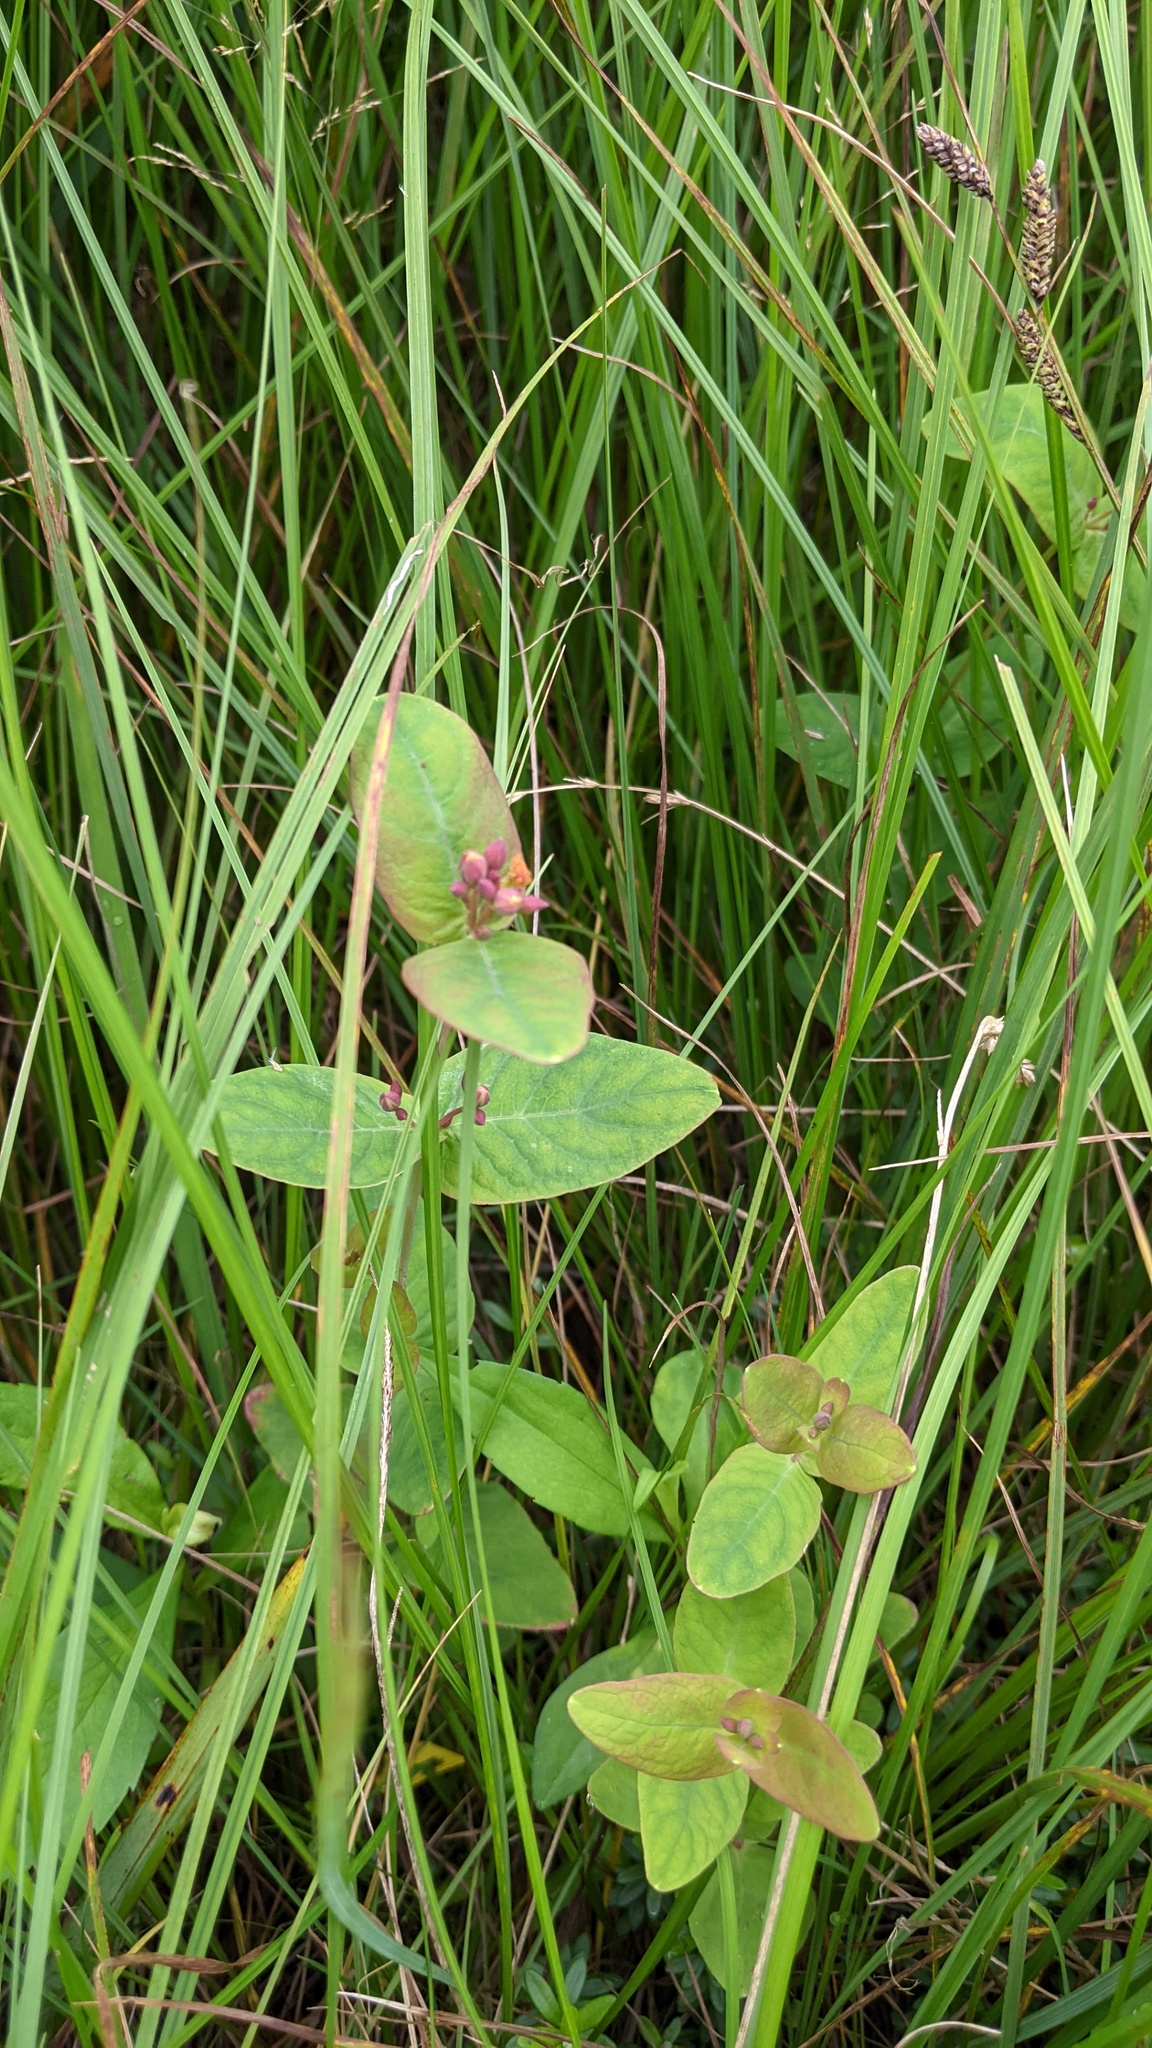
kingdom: Plantae
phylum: Tracheophyta
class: Magnoliopsida
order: Malpighiales
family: Hypericaceae
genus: Triadenum
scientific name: Triadenum fraseri
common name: Fraser's marsh st. johnswort
